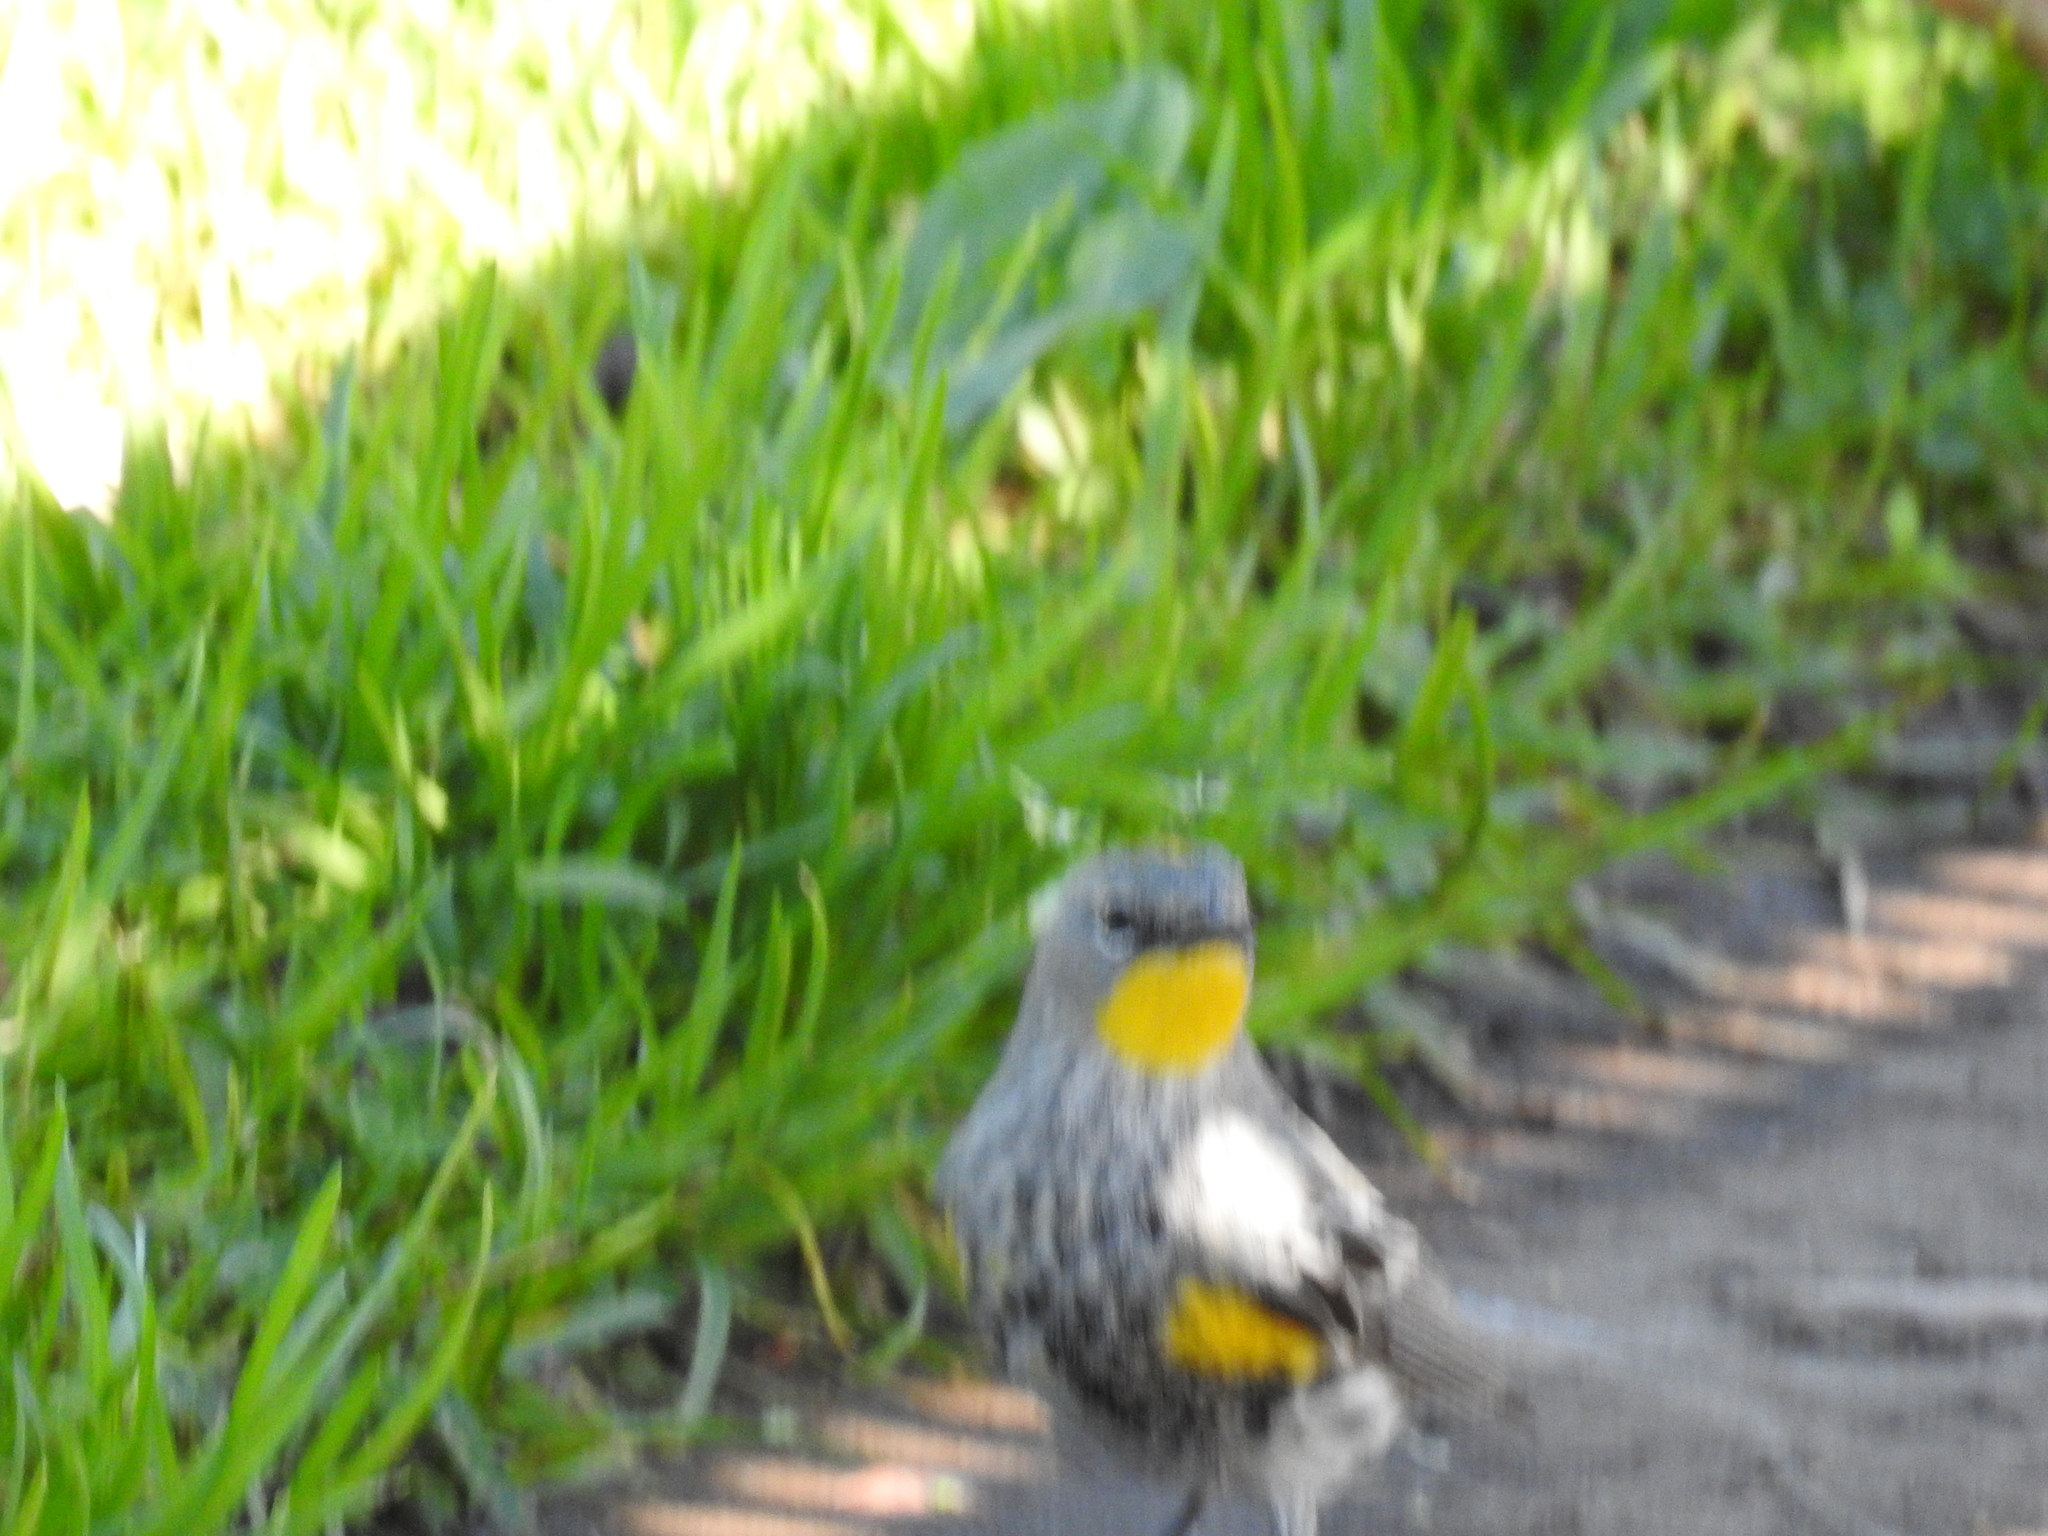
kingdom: Animalia
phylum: Chordata
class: Aves
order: Passeriformes
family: Parulidae
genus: Setophaga
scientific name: Setophaga auduboni
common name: Audubon's warbler
